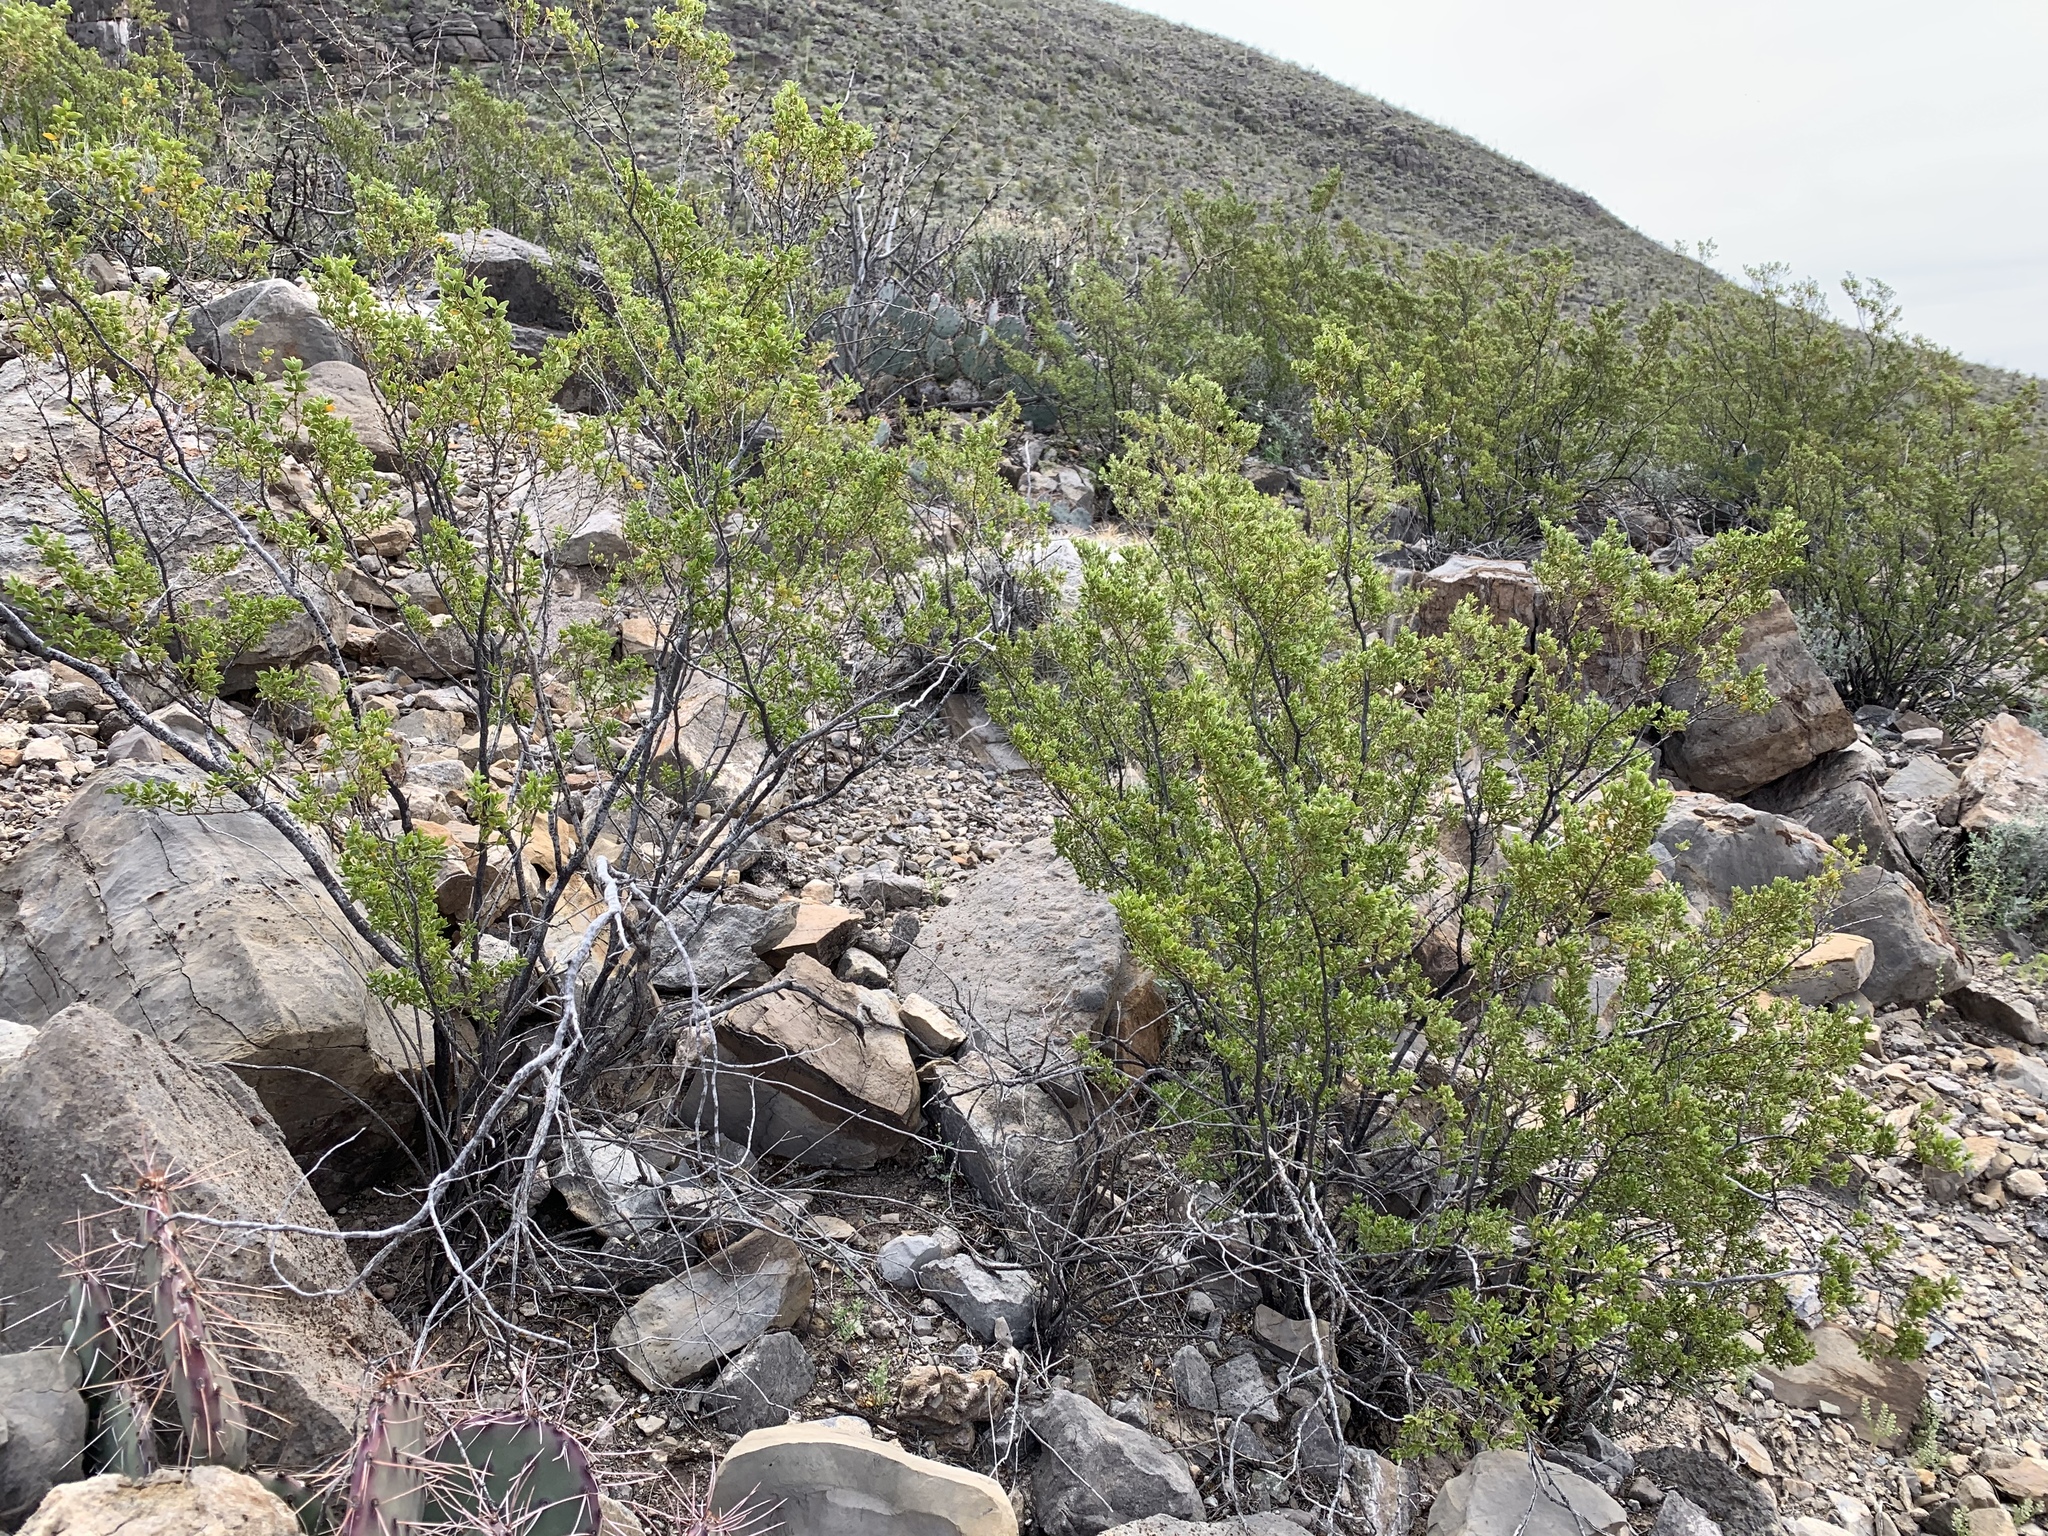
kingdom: Plantae
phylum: Tracheophyta
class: Magnoliopsida
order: Zygophyllales
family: Zygophyllaceae
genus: Larrea
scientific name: Larrea tridentata
